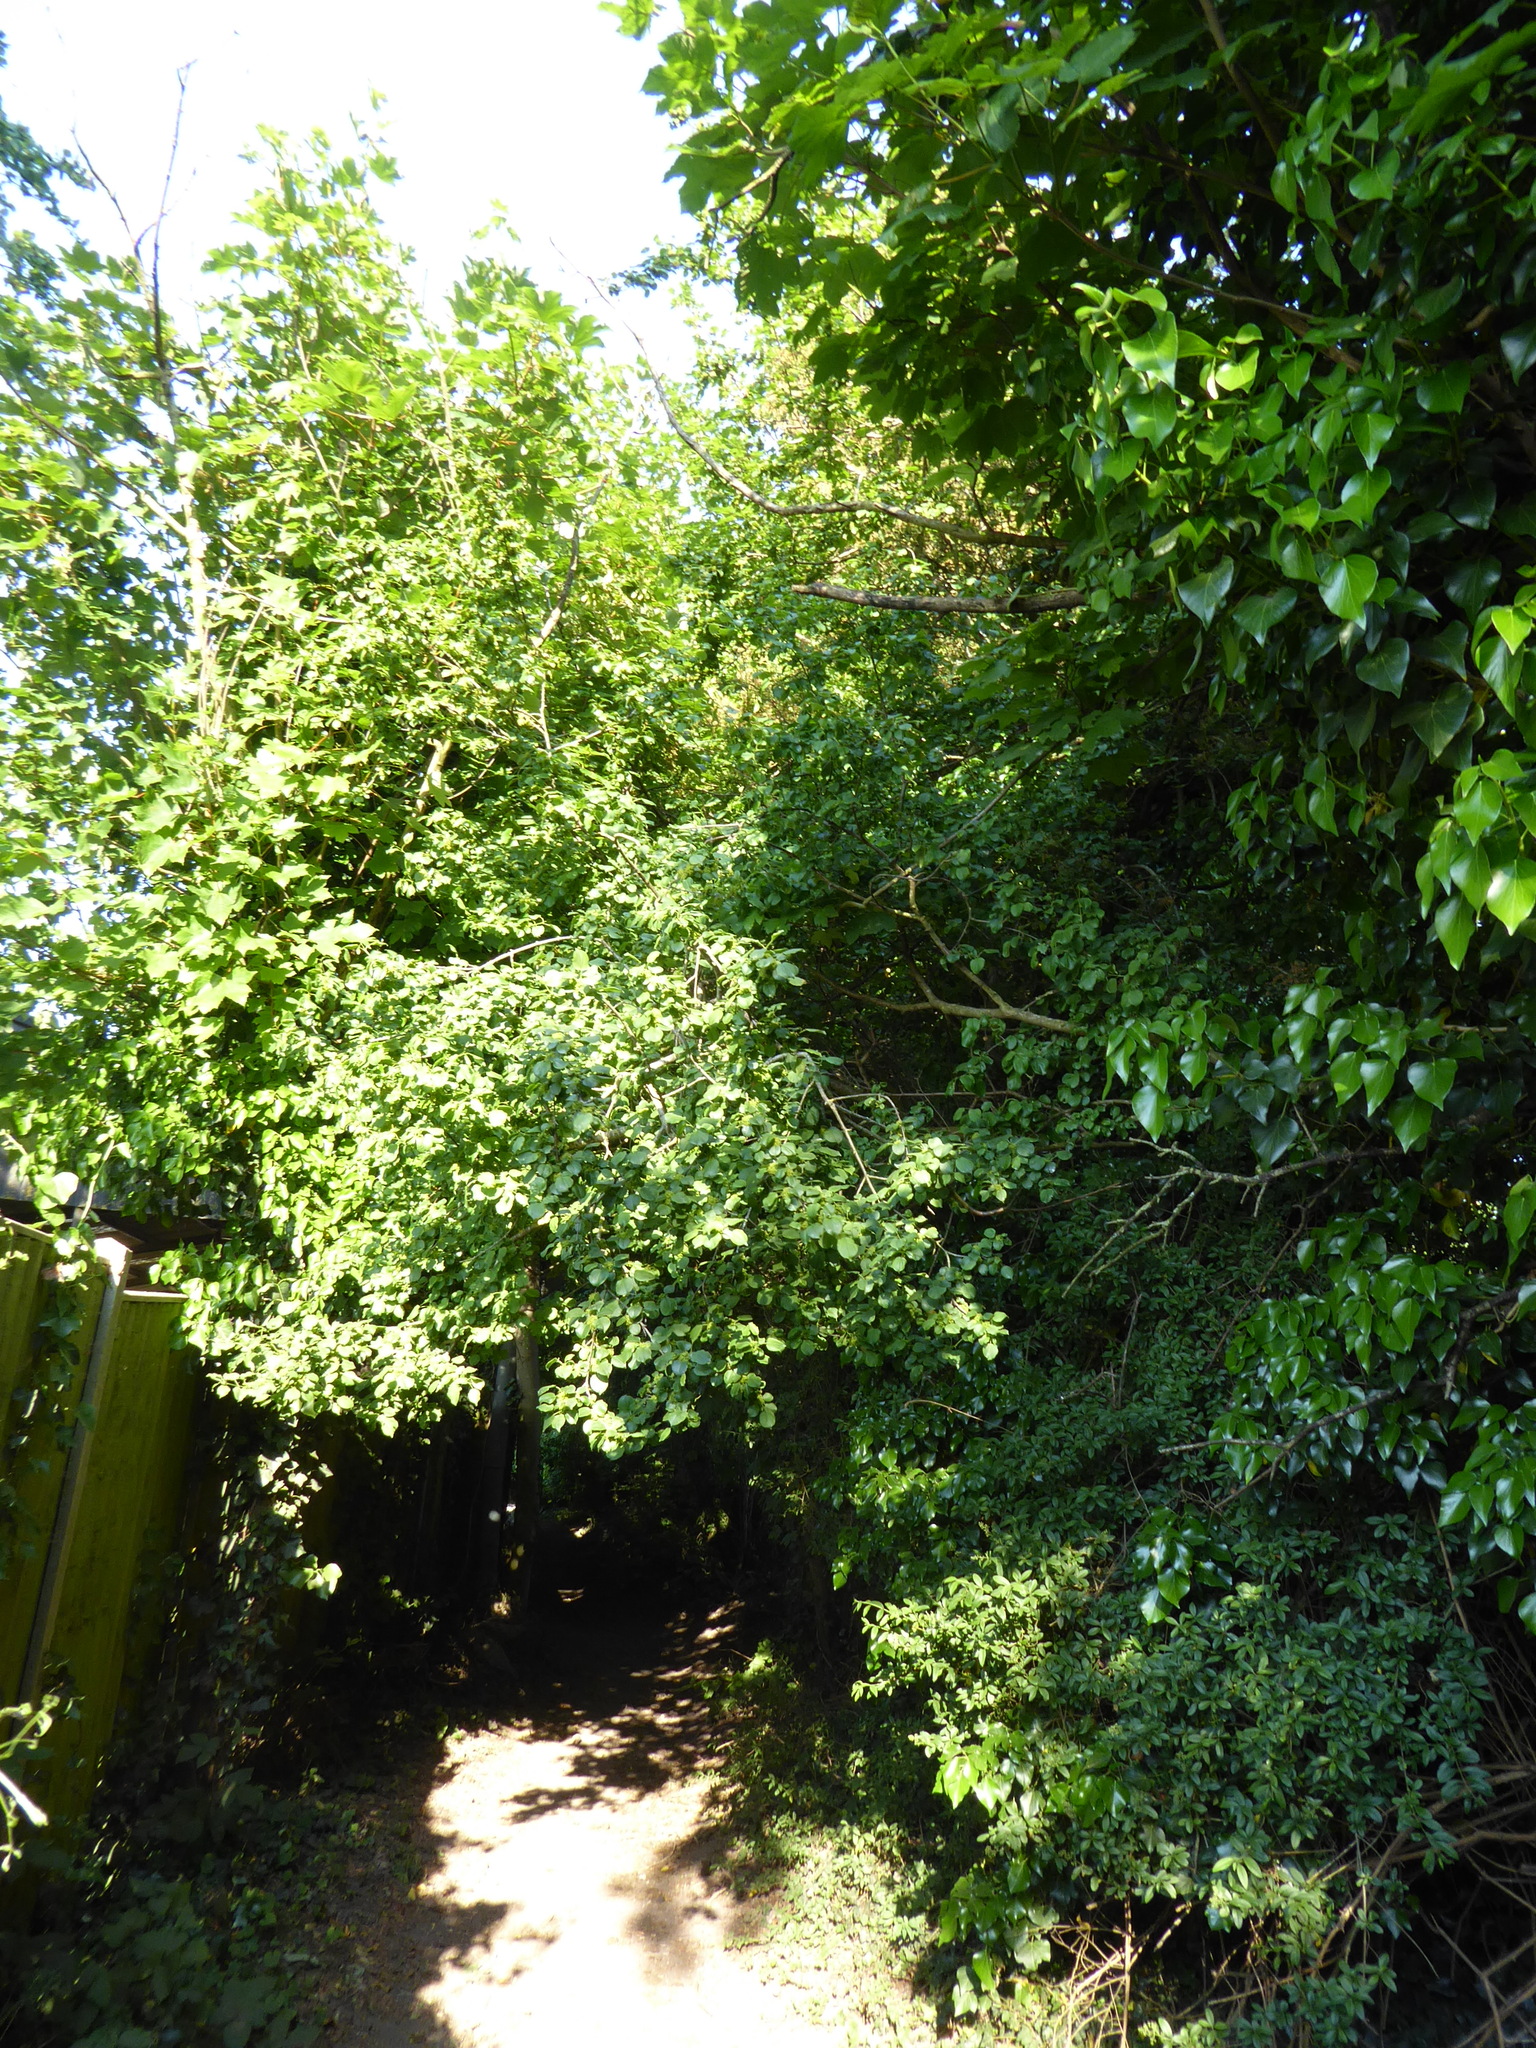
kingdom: Plantae
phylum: Tracheophyta
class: Magnoliopsida
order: Rosales
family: Rhamnaceae
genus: Rhamnus
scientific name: Rhamnus cathartica
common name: Common buckthorn
